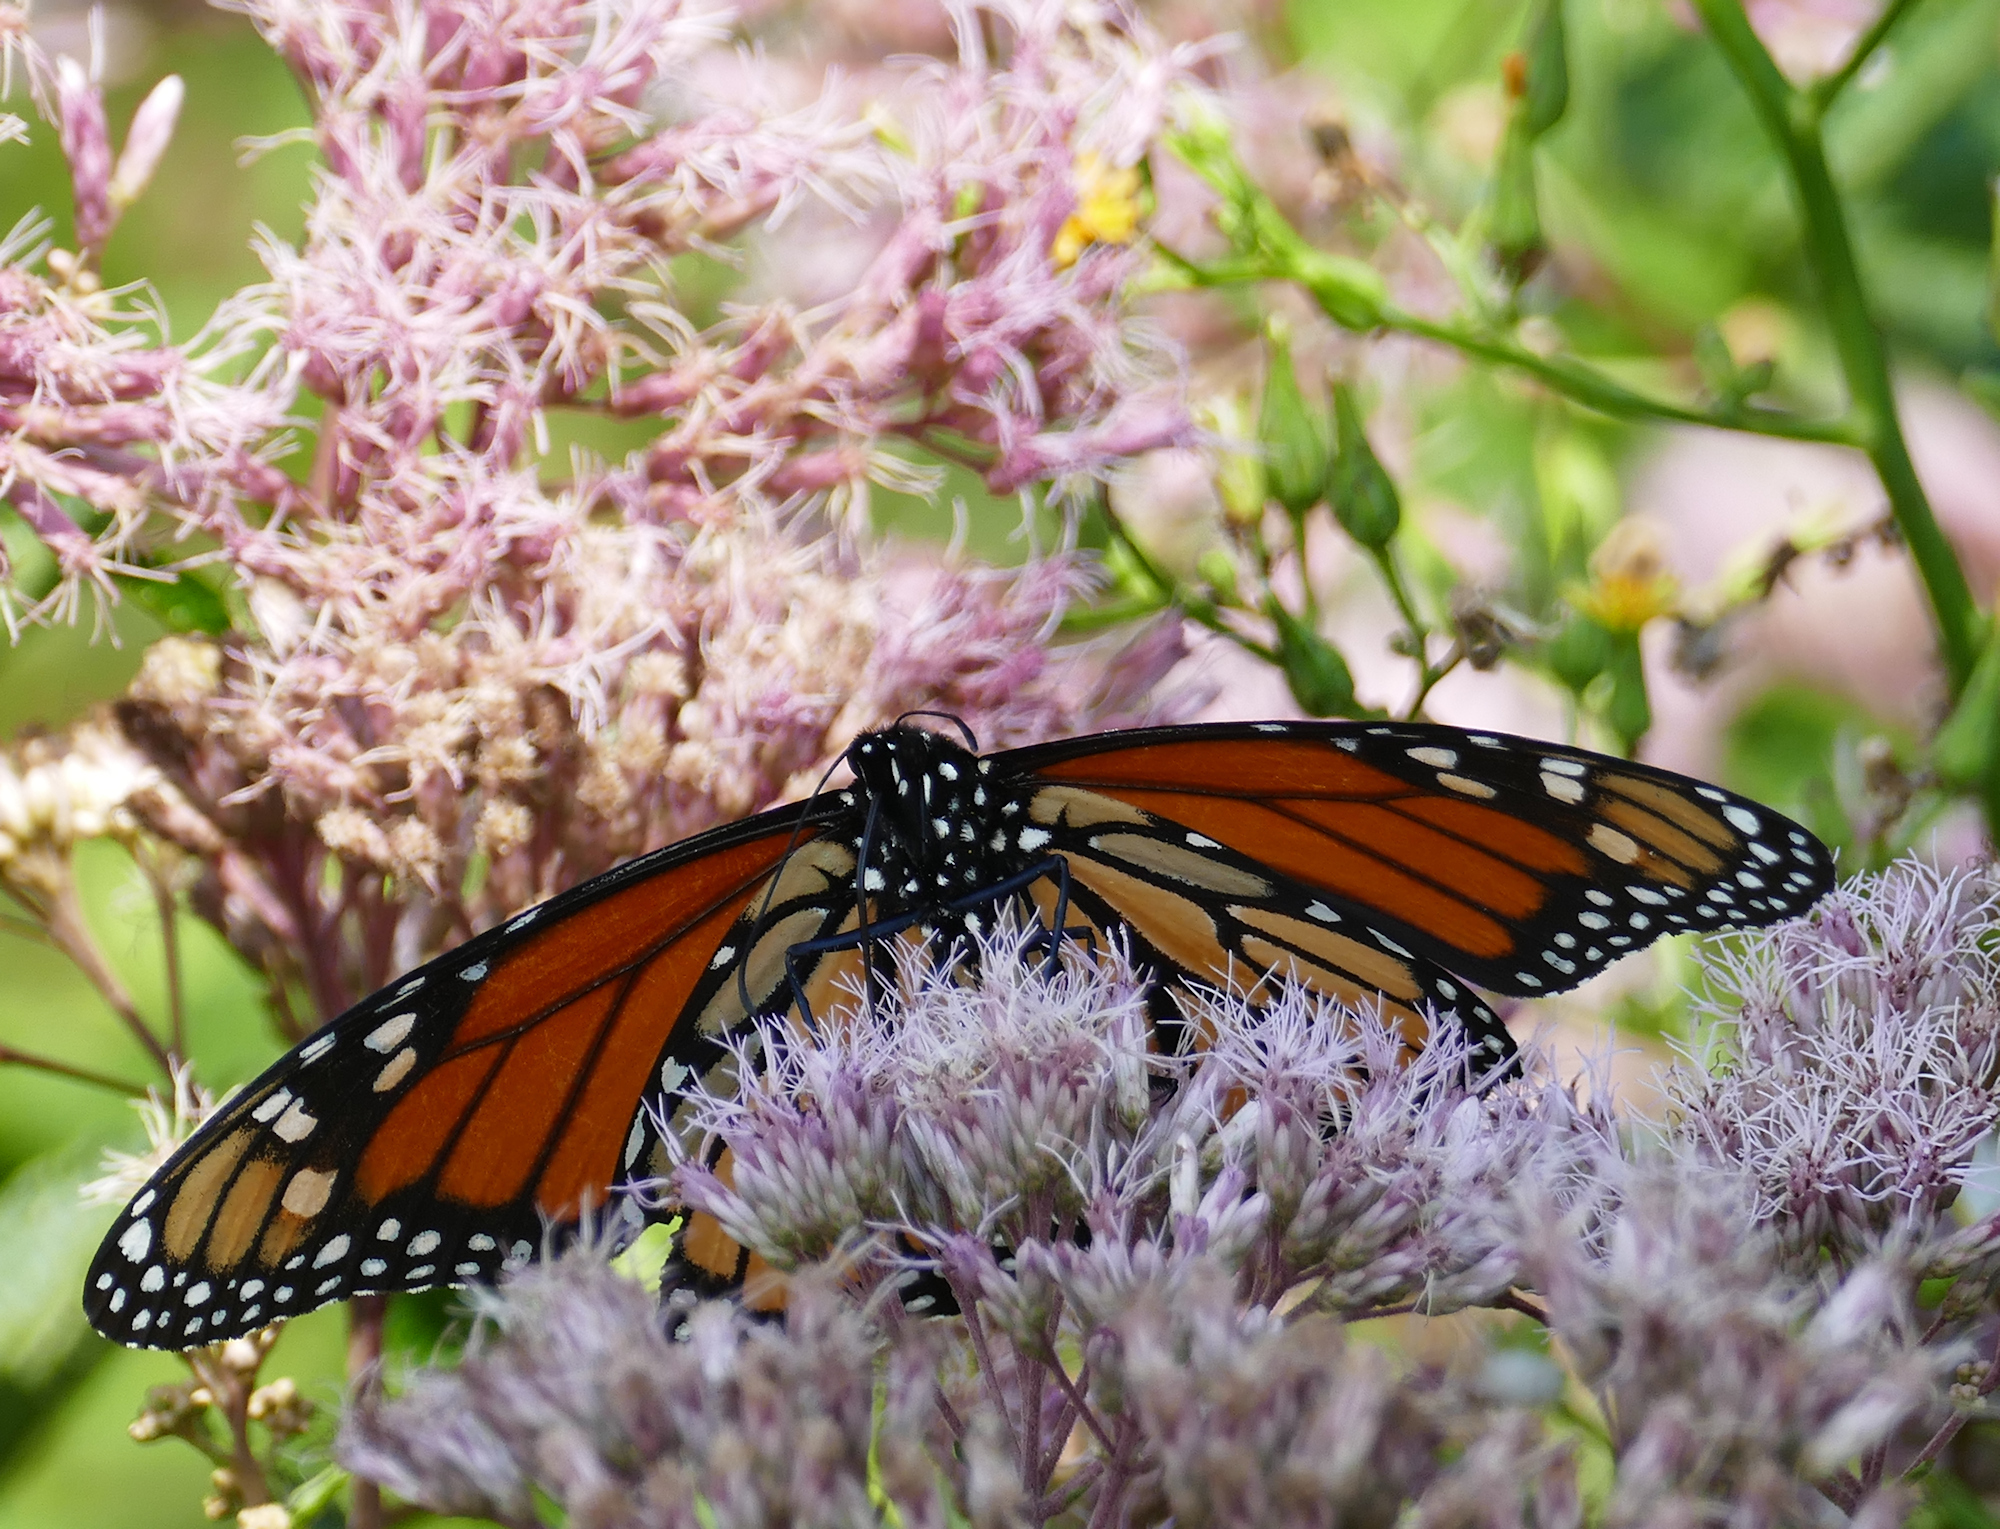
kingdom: Animalia
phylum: Arthropoda
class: Insecta
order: Lepidoptera
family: Nymphalidae
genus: Danaus
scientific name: Danaus plexippus
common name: Monarch
